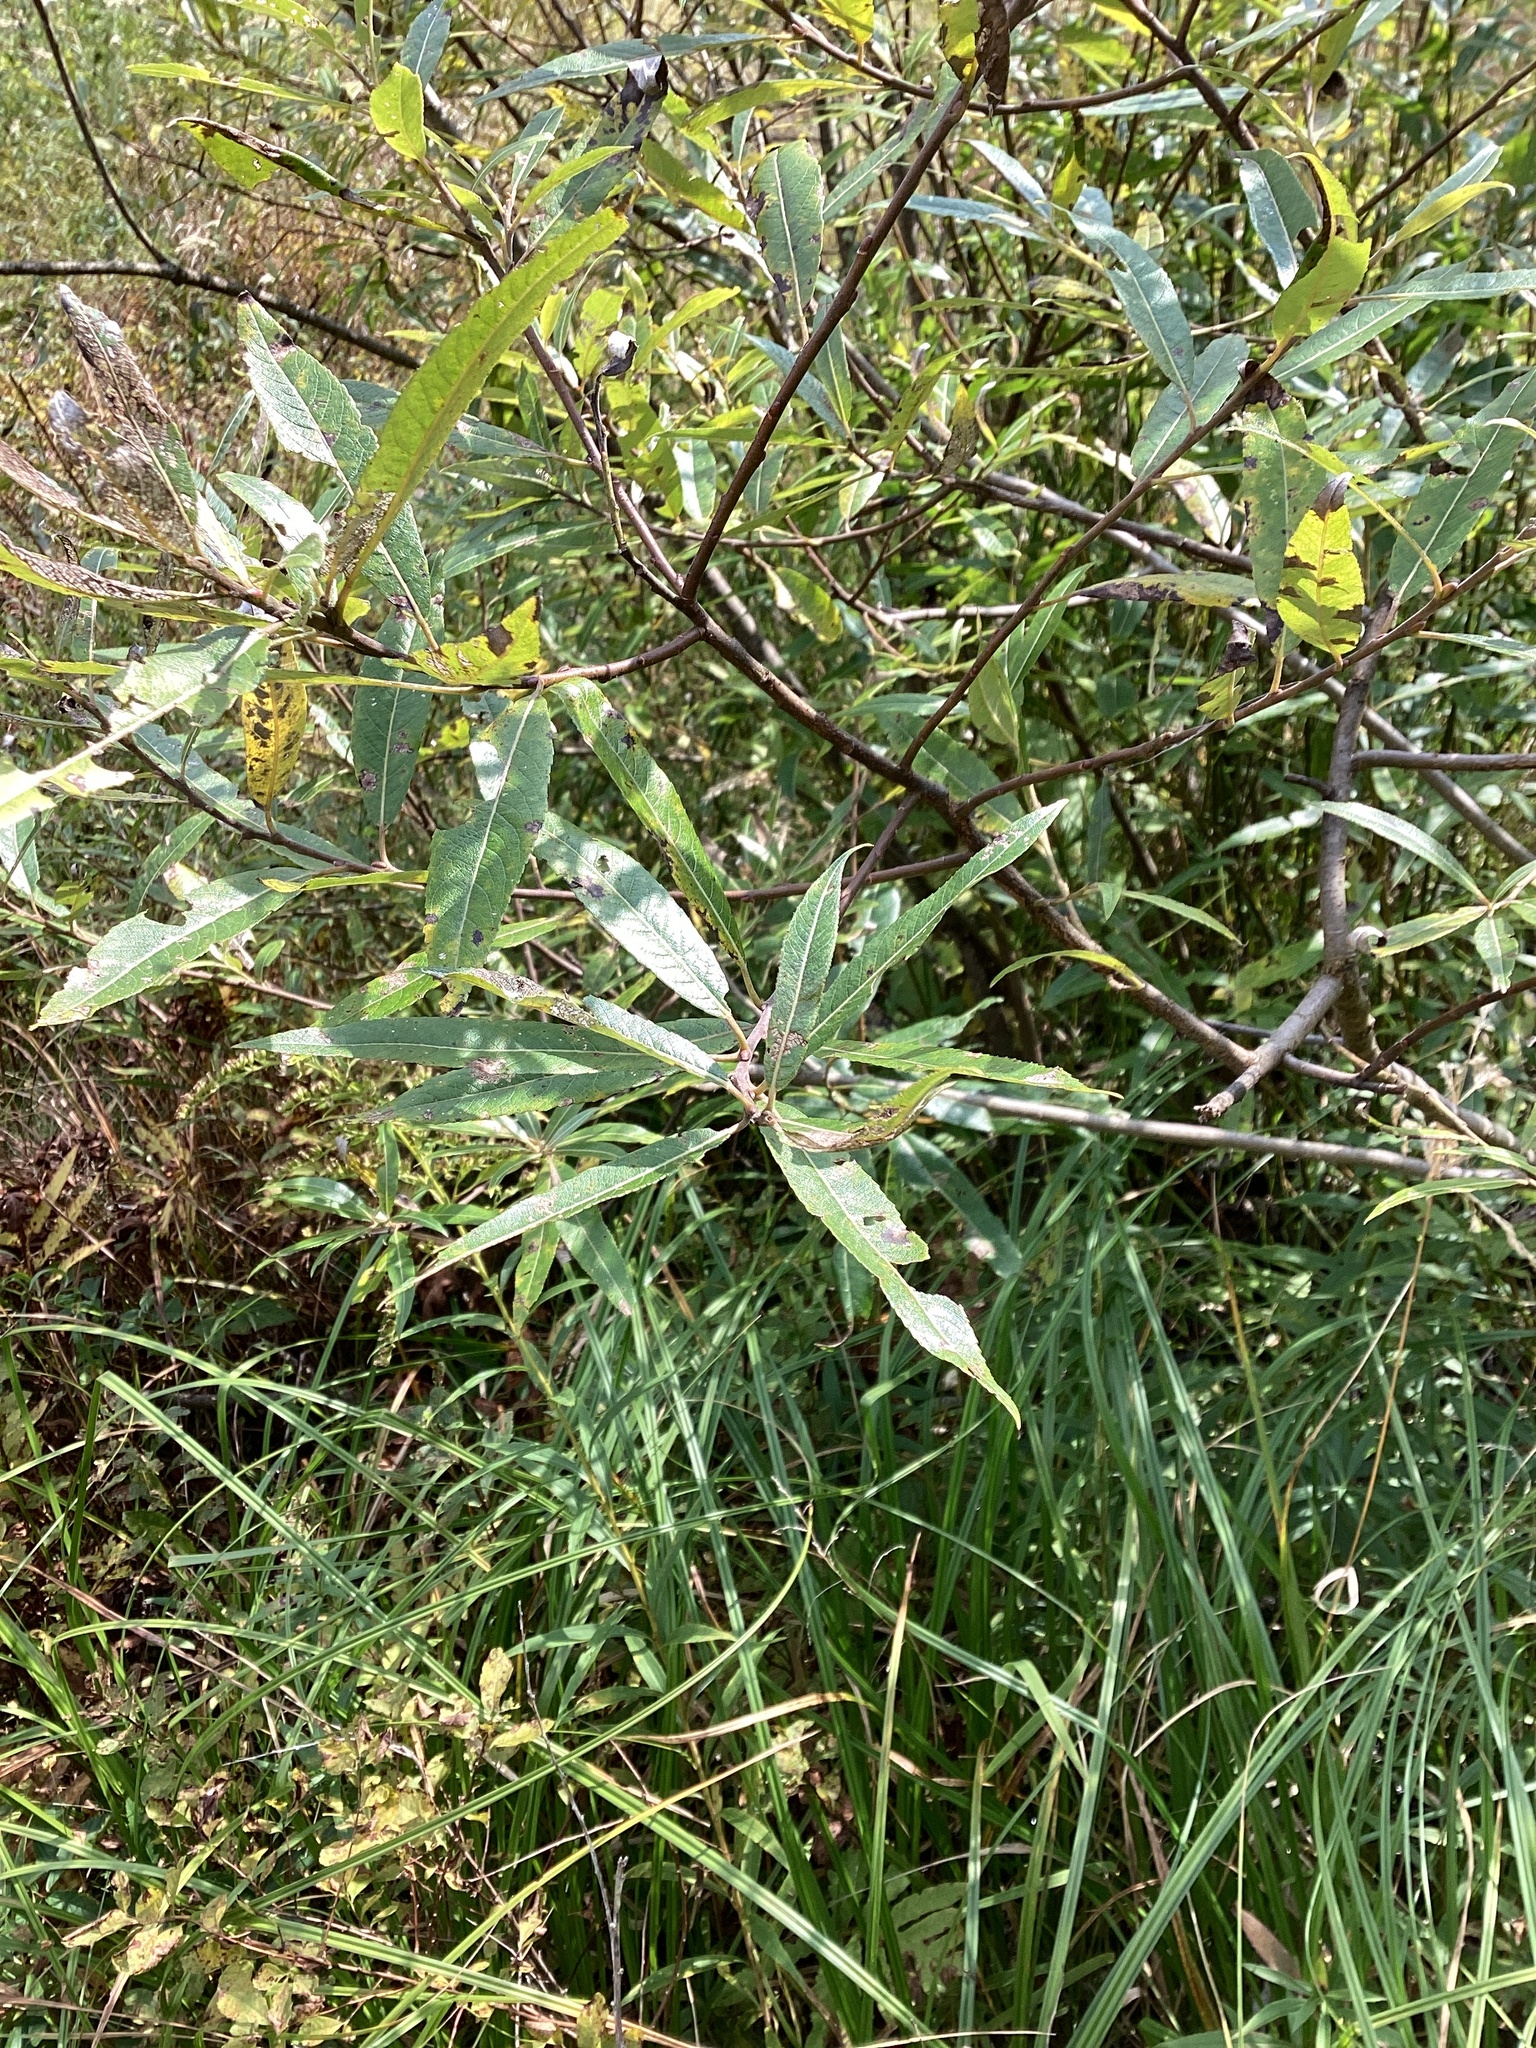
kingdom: Plantae
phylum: Tracheophyta
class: Magnoliopsida
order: Malpighiales
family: Salicaceae
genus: Salix
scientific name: Salix sericea
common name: Silky willow
